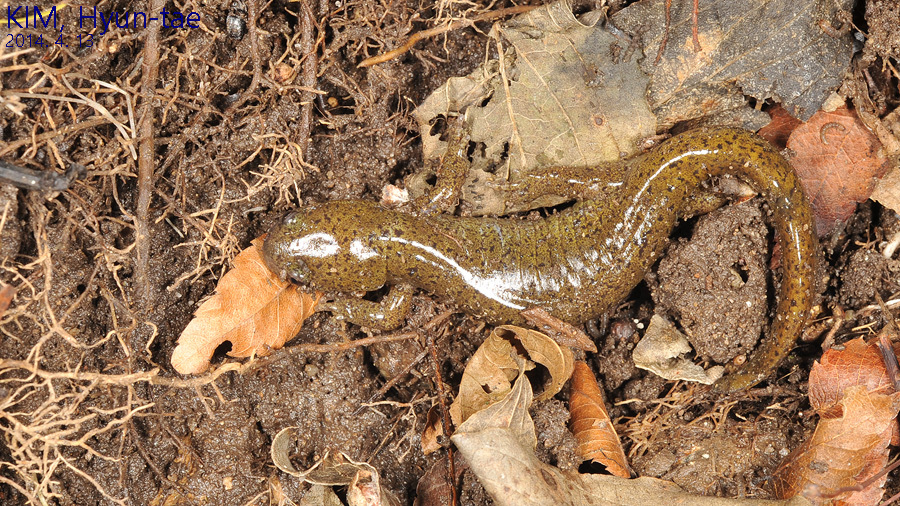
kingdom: Animalia
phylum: Chordata
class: Amphibia
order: Caudata
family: Hynobiidae
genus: Hynobius
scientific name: Hynobius leechii
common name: Gensan salamander
